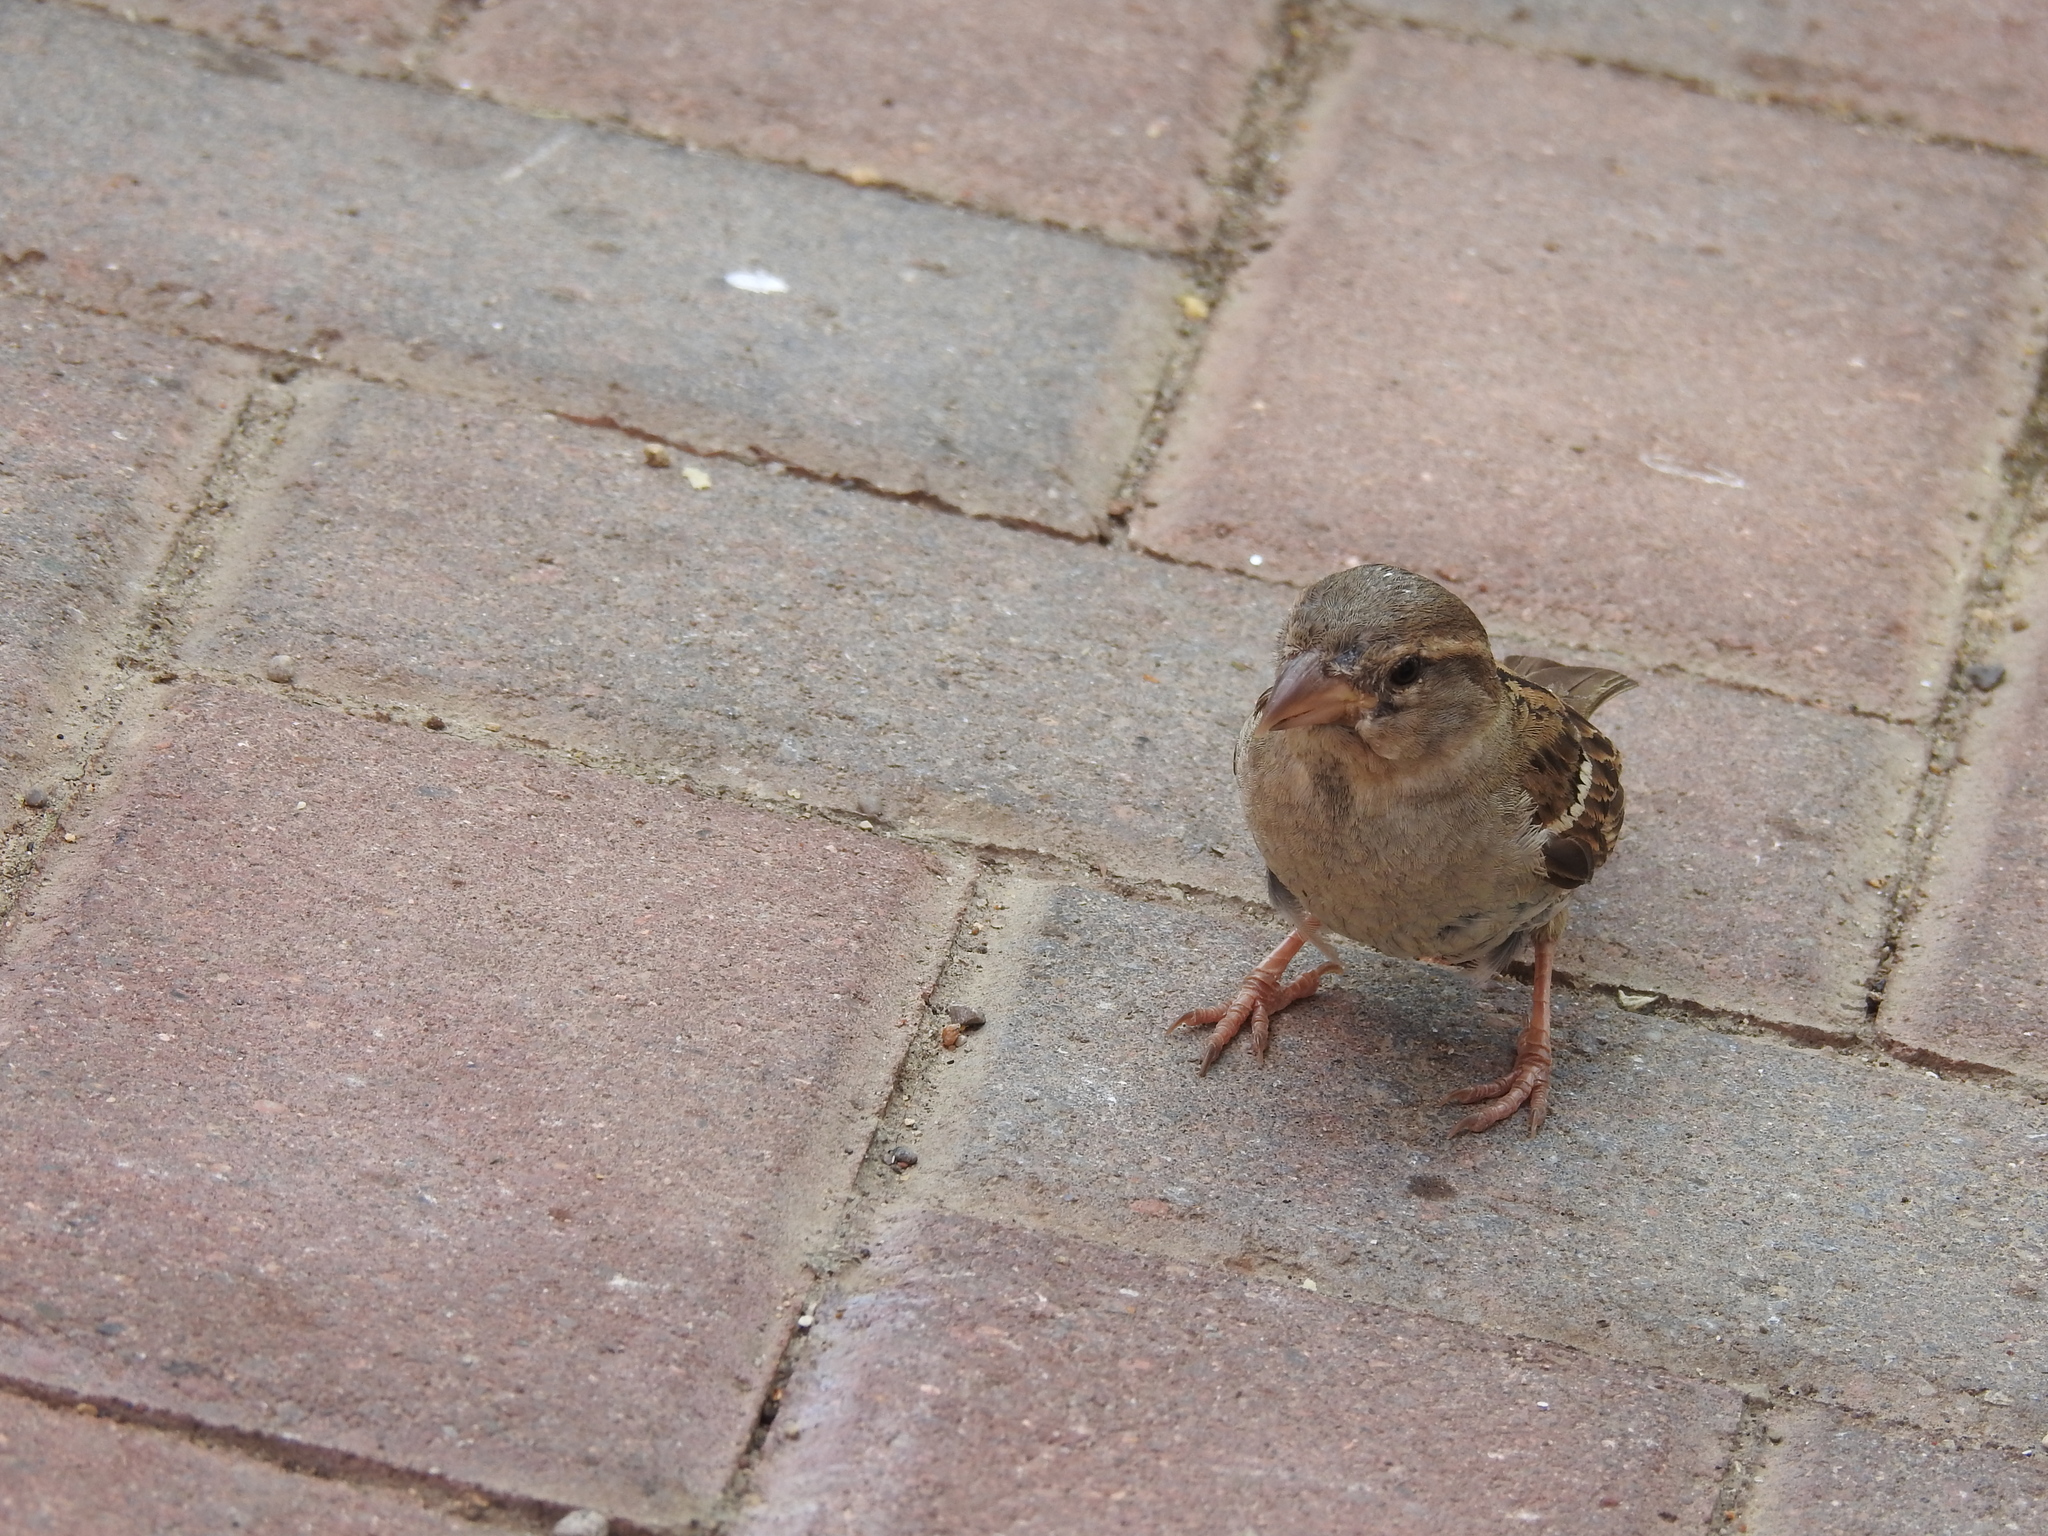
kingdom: Animalia
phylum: Chordata
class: Aves
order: Passeriformes
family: Passeridae
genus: Passer
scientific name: Passer domesticus
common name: House sparrow
